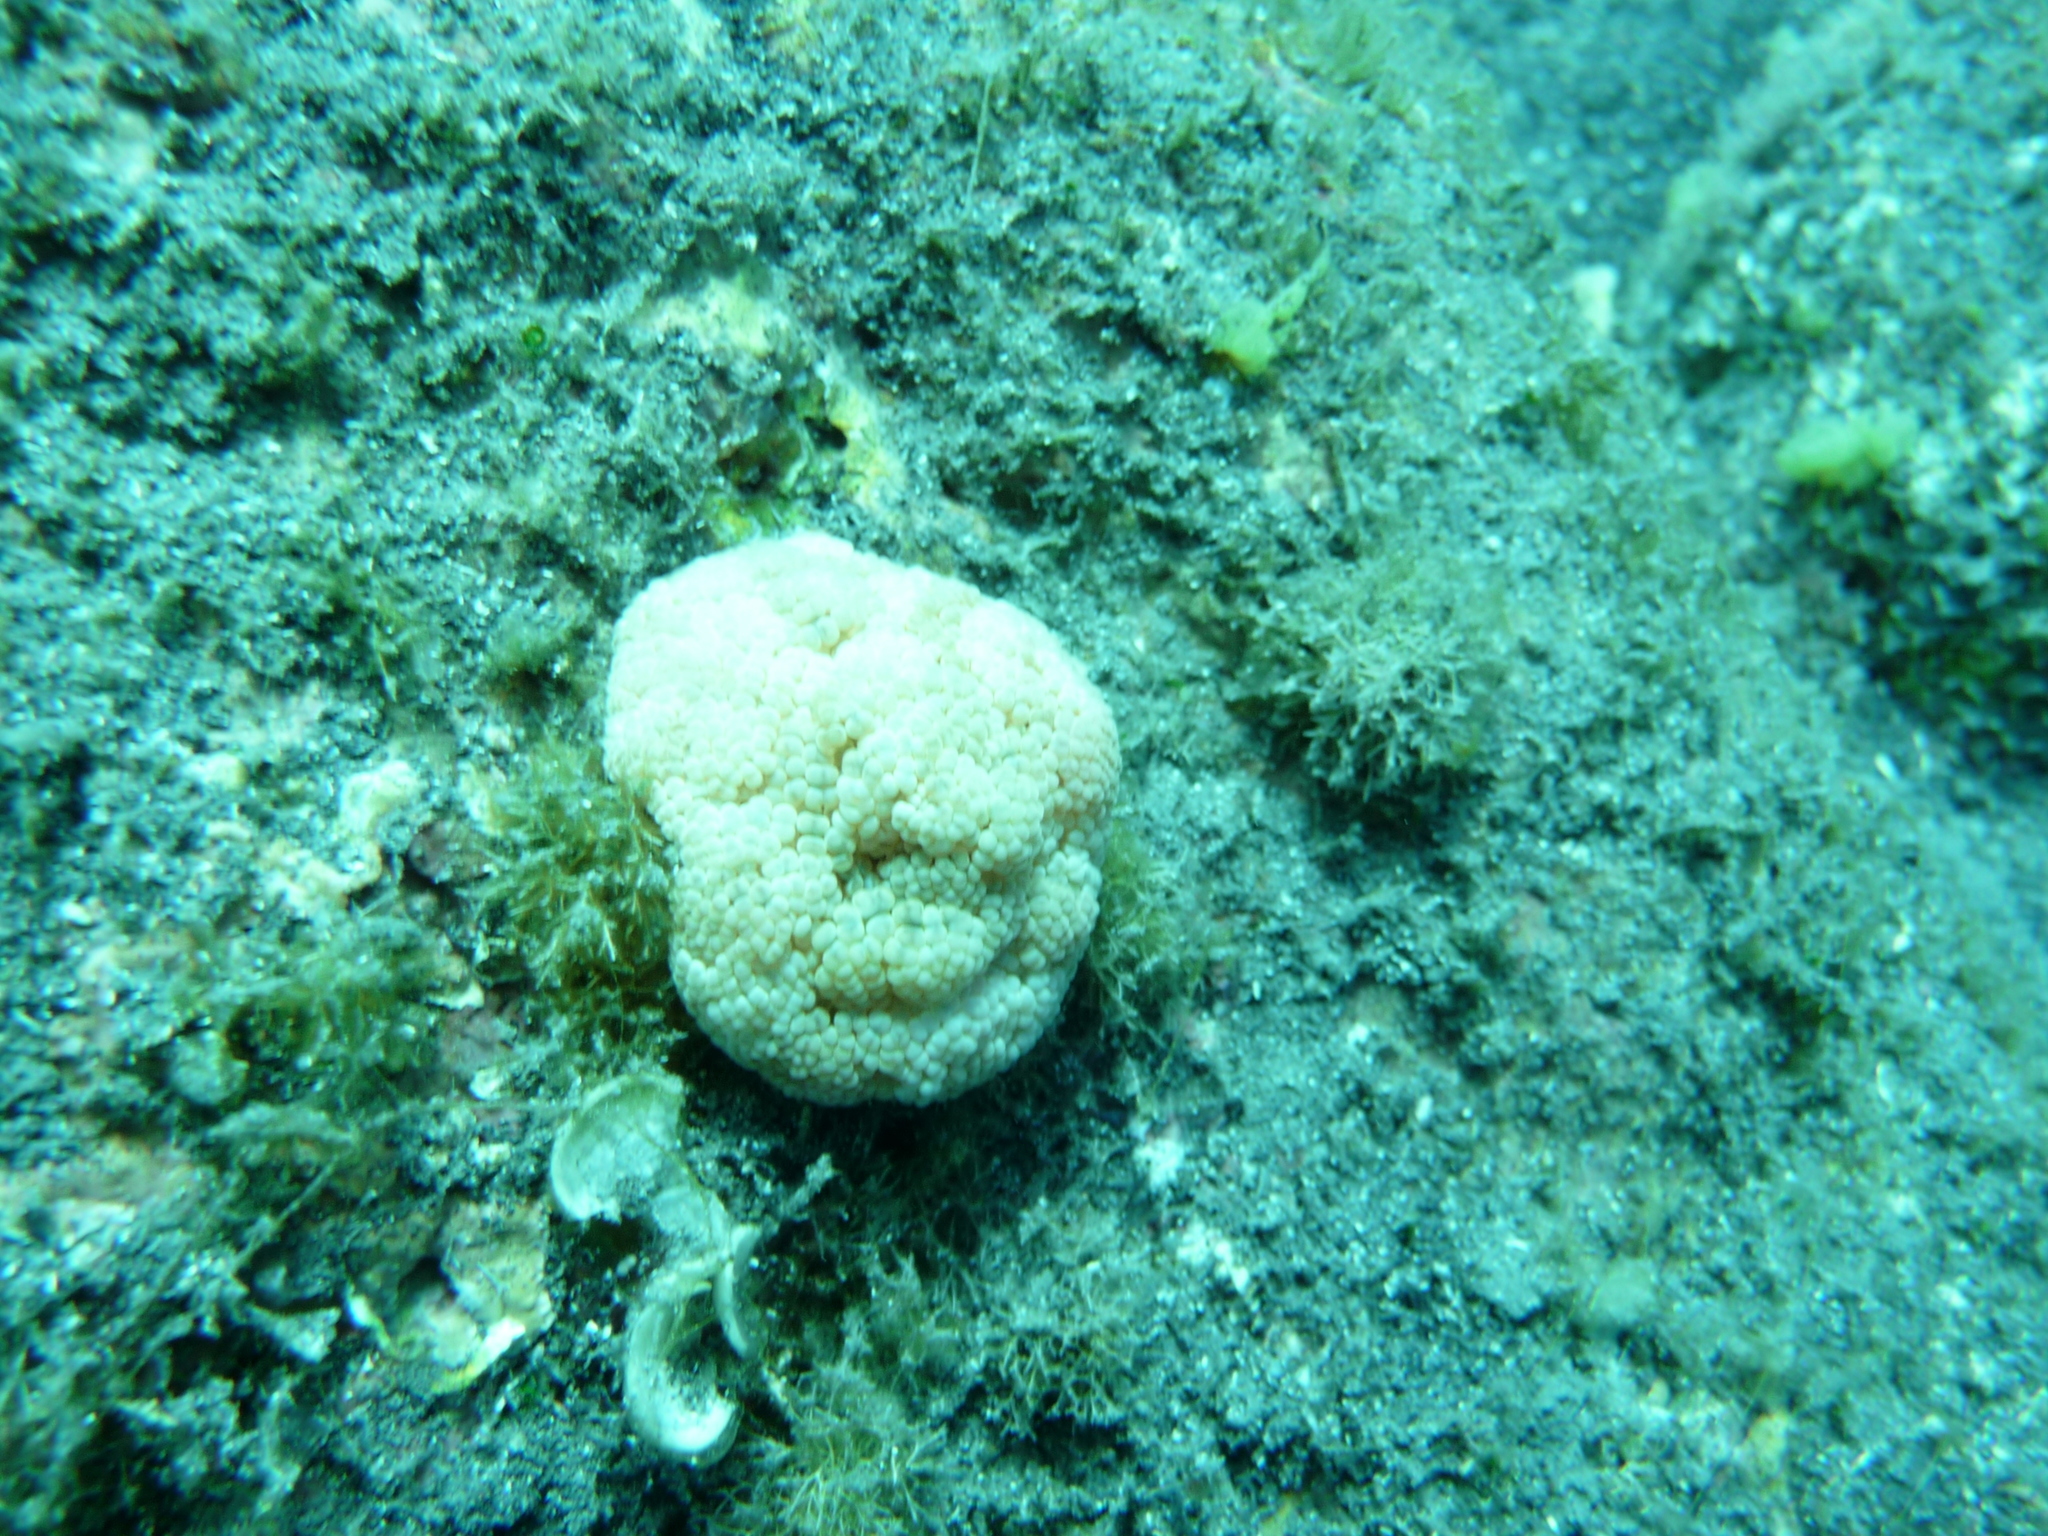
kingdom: Animalia
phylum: Cnidaria
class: Anthozoa
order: Actiniaria
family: Aliciidae
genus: Alicia
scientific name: Alicia mirabilis
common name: Berried anemone
